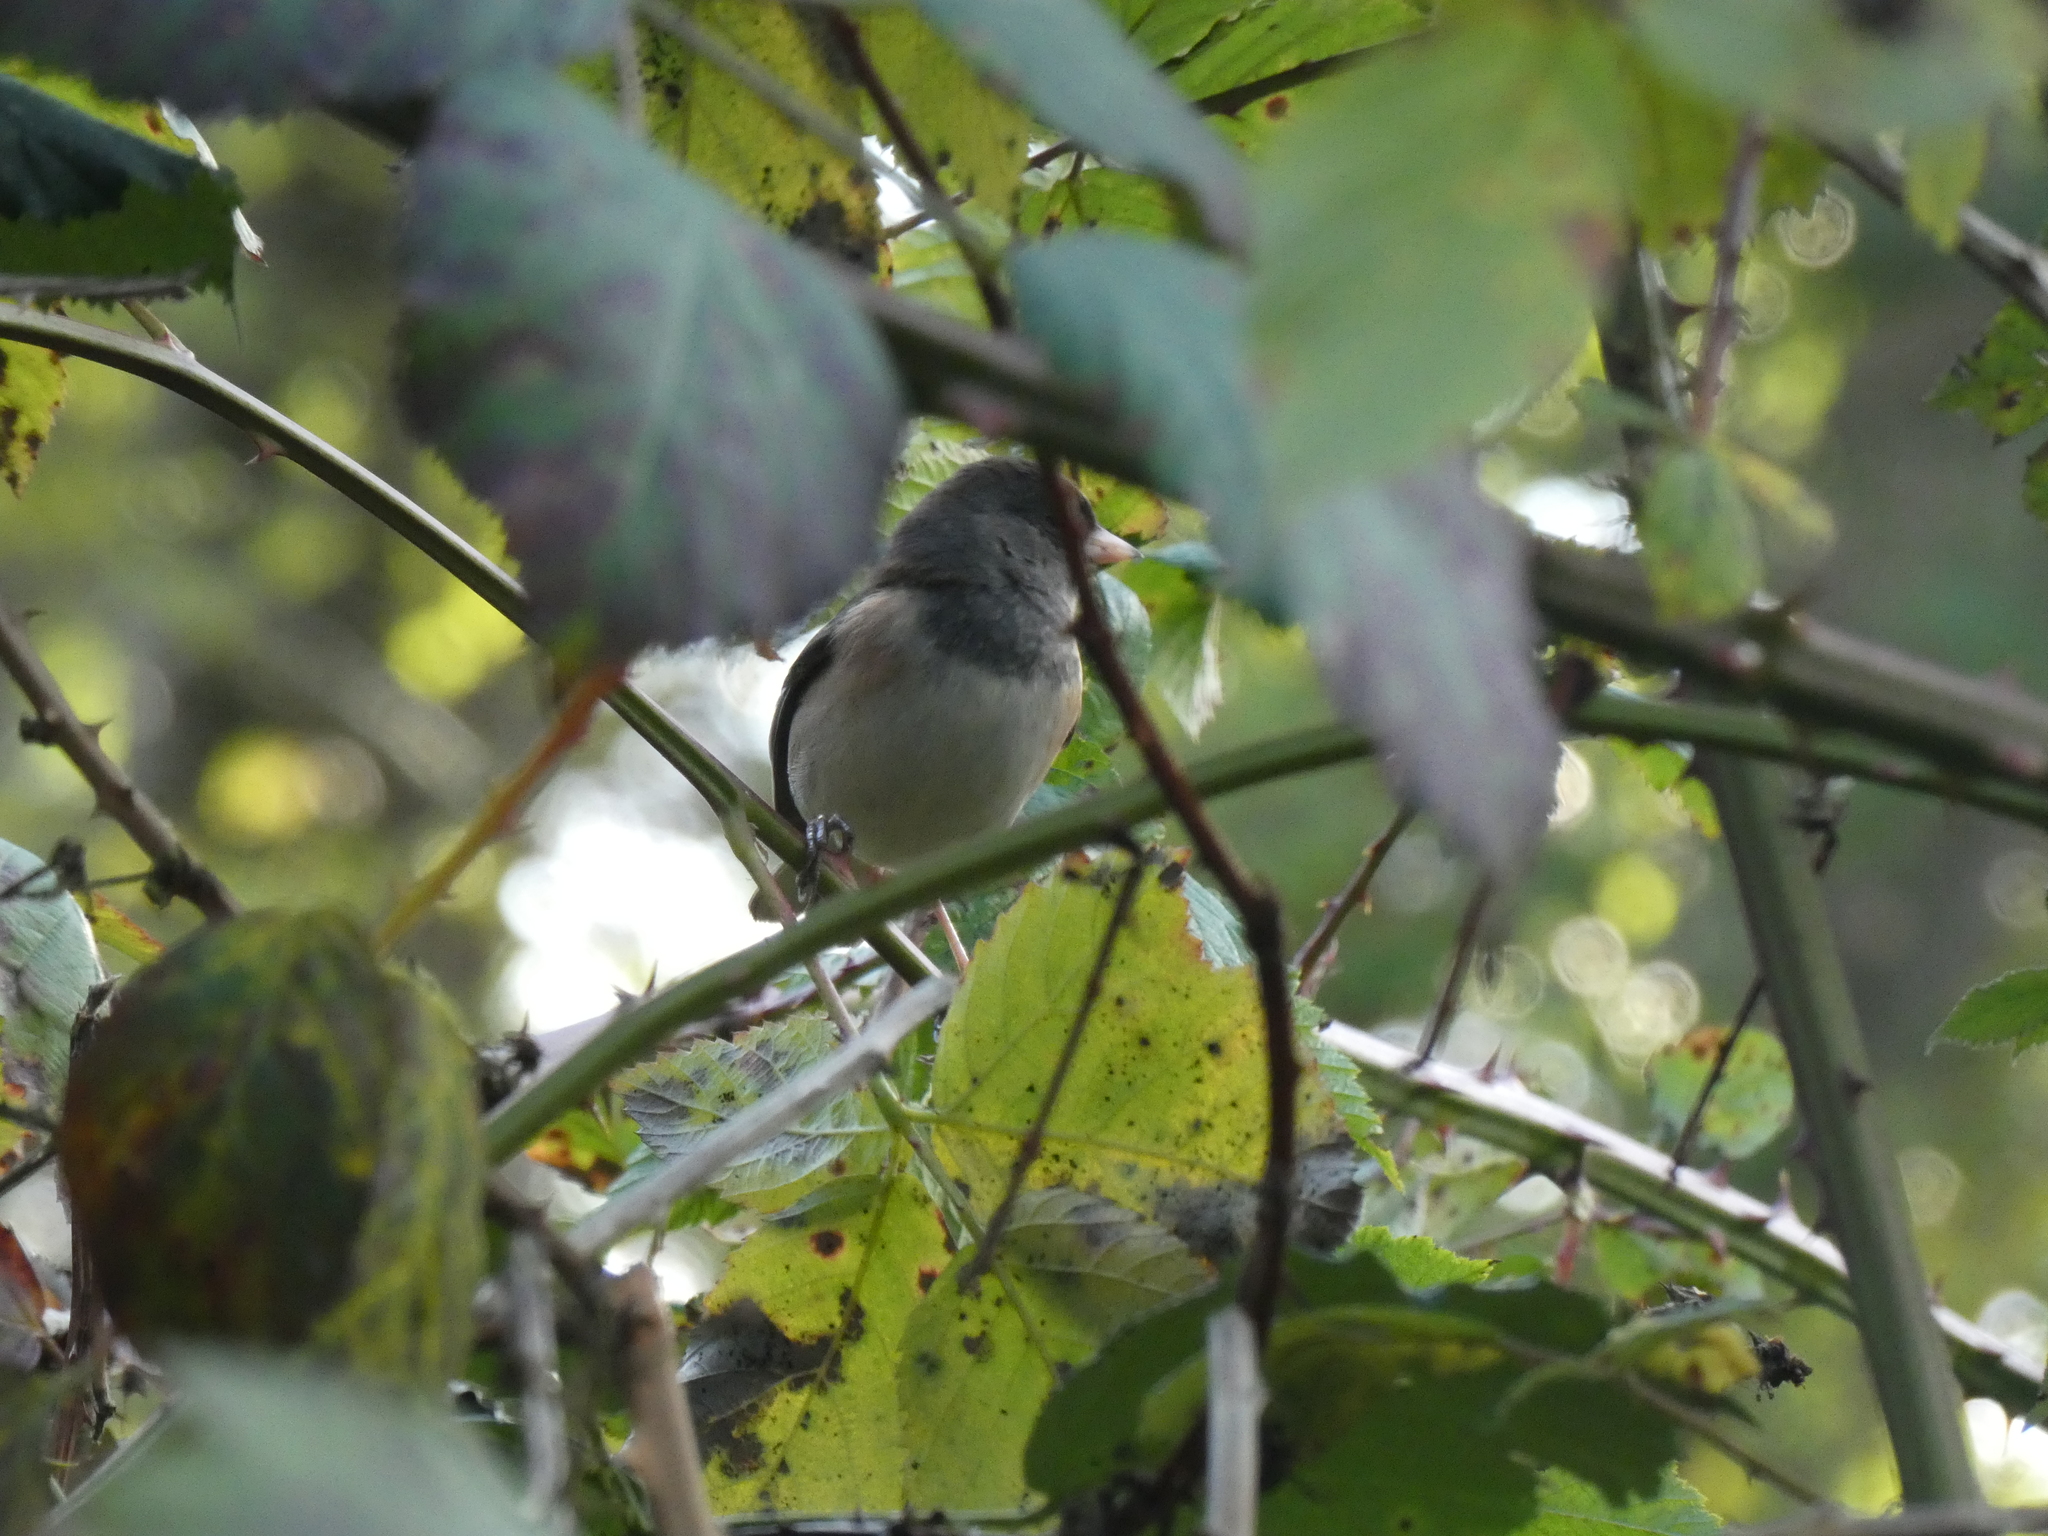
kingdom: Animalia
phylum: Chordata
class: Aves
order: Passeriformes
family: Passerellidae
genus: Junco
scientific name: Junco hyemalis
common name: Dark-eyed junco
